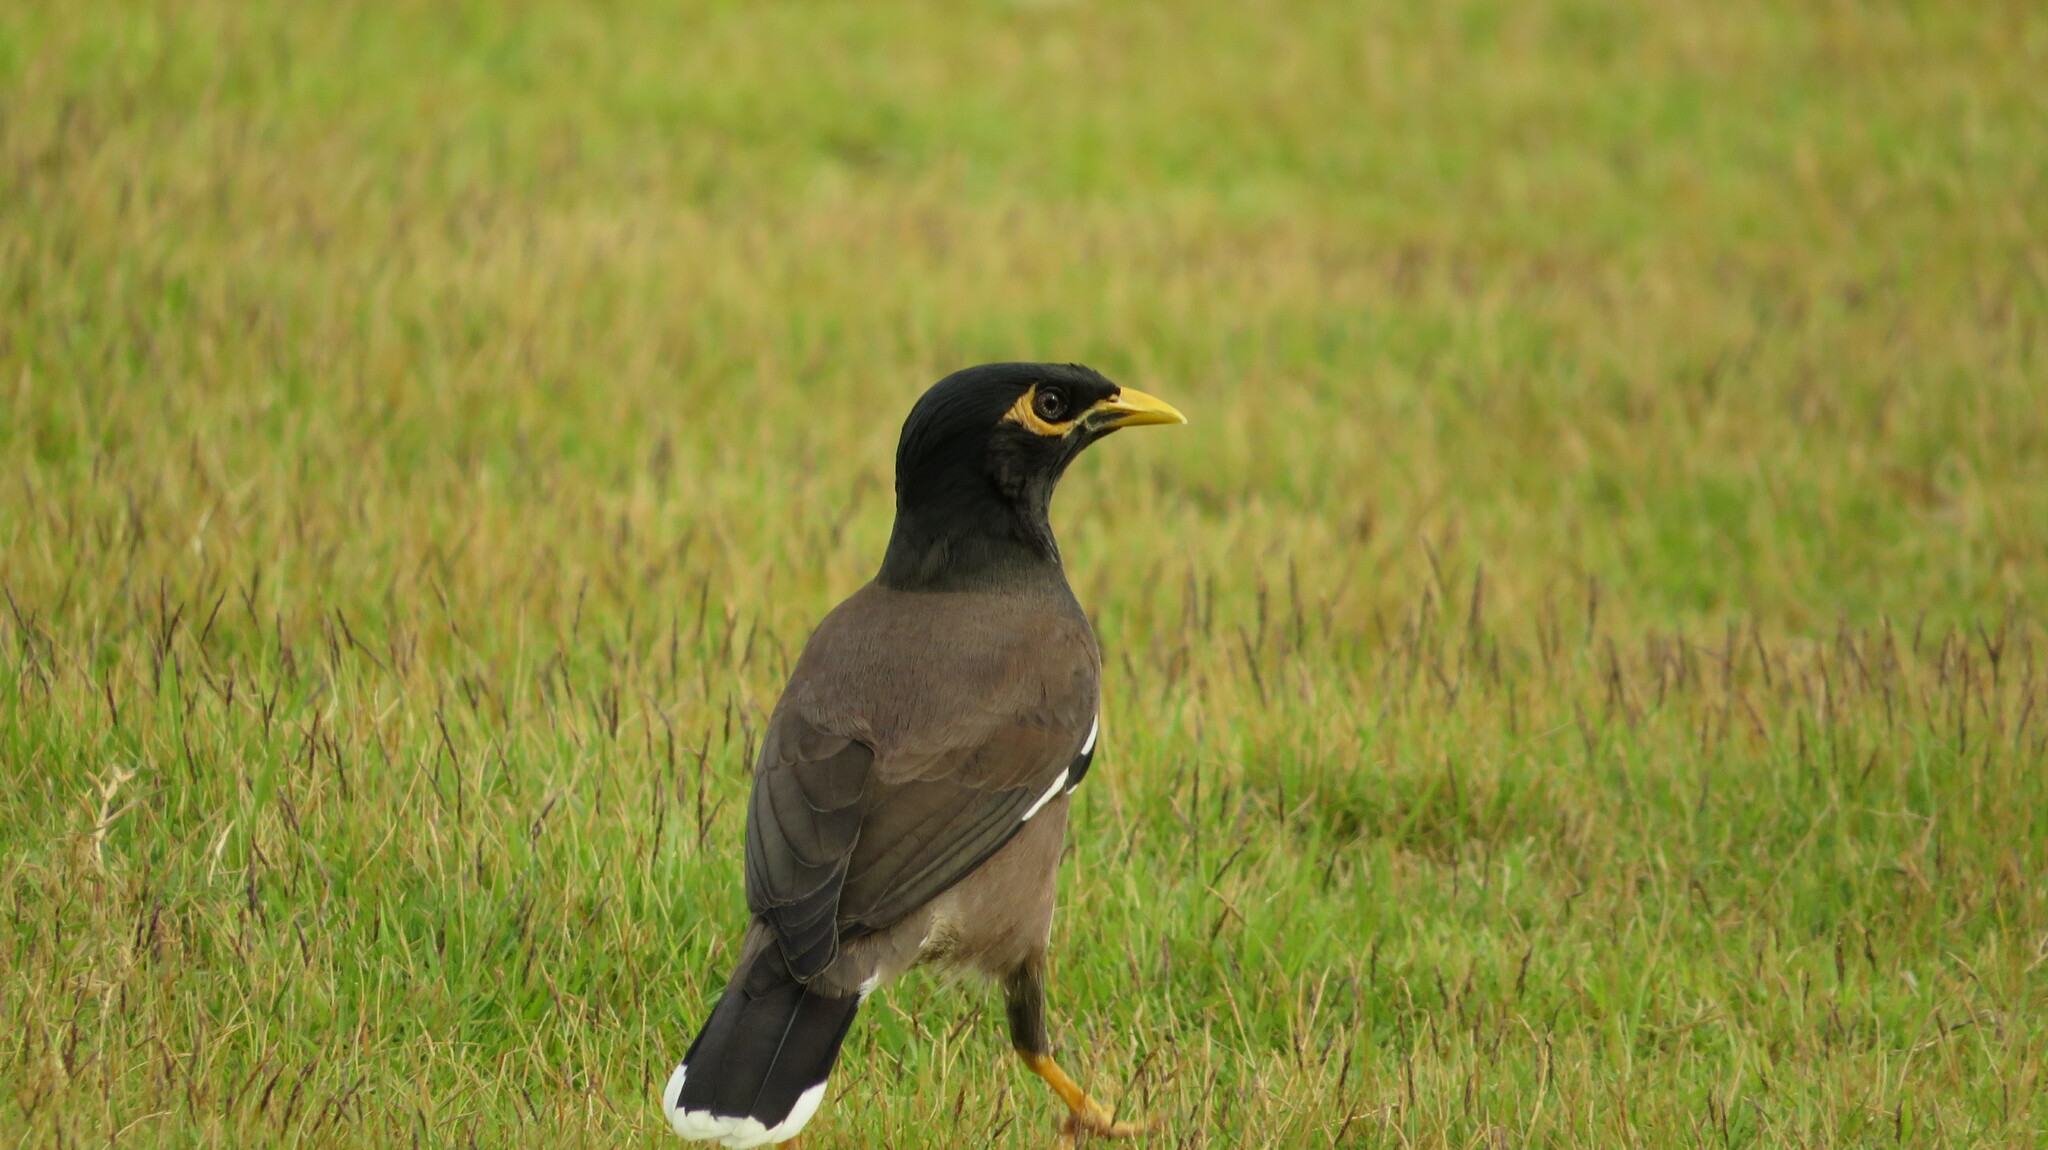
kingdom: Animalia
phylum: Chordata
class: Aves
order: Passeriformes
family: Sturnidae
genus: Acridotheres
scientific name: Acridotheres tristis
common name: Common myna
